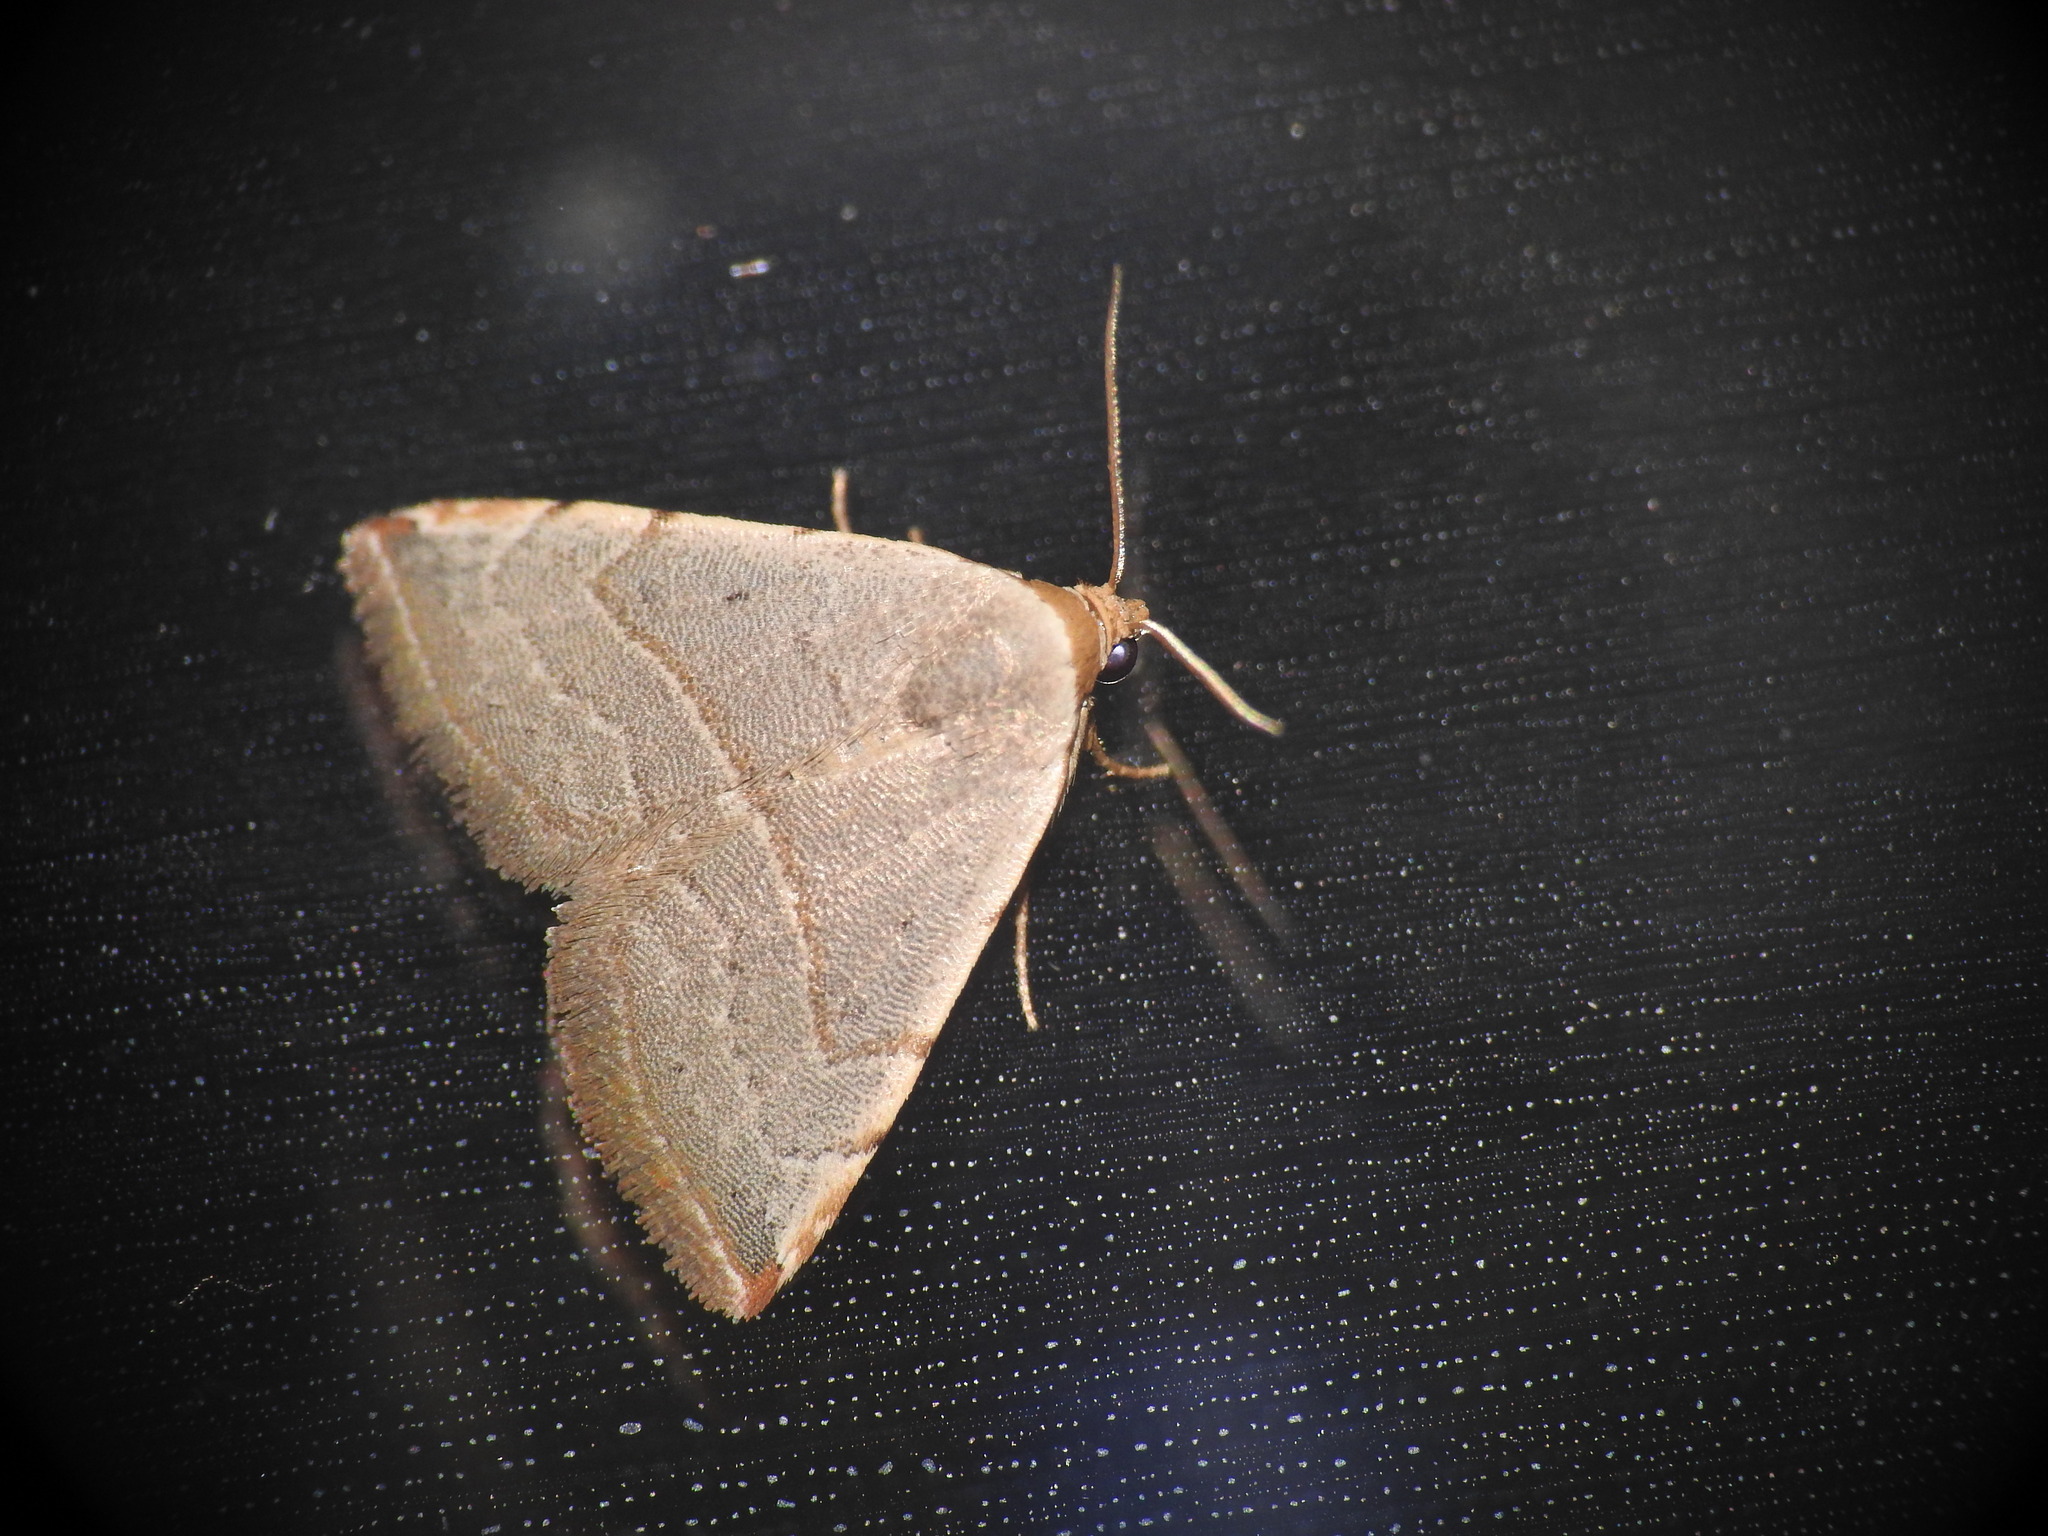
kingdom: Animalia
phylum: Arthropoda
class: Insecta
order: Lepidoptera
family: Noctuidae
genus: Eublemma
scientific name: Eublemma polygramma
